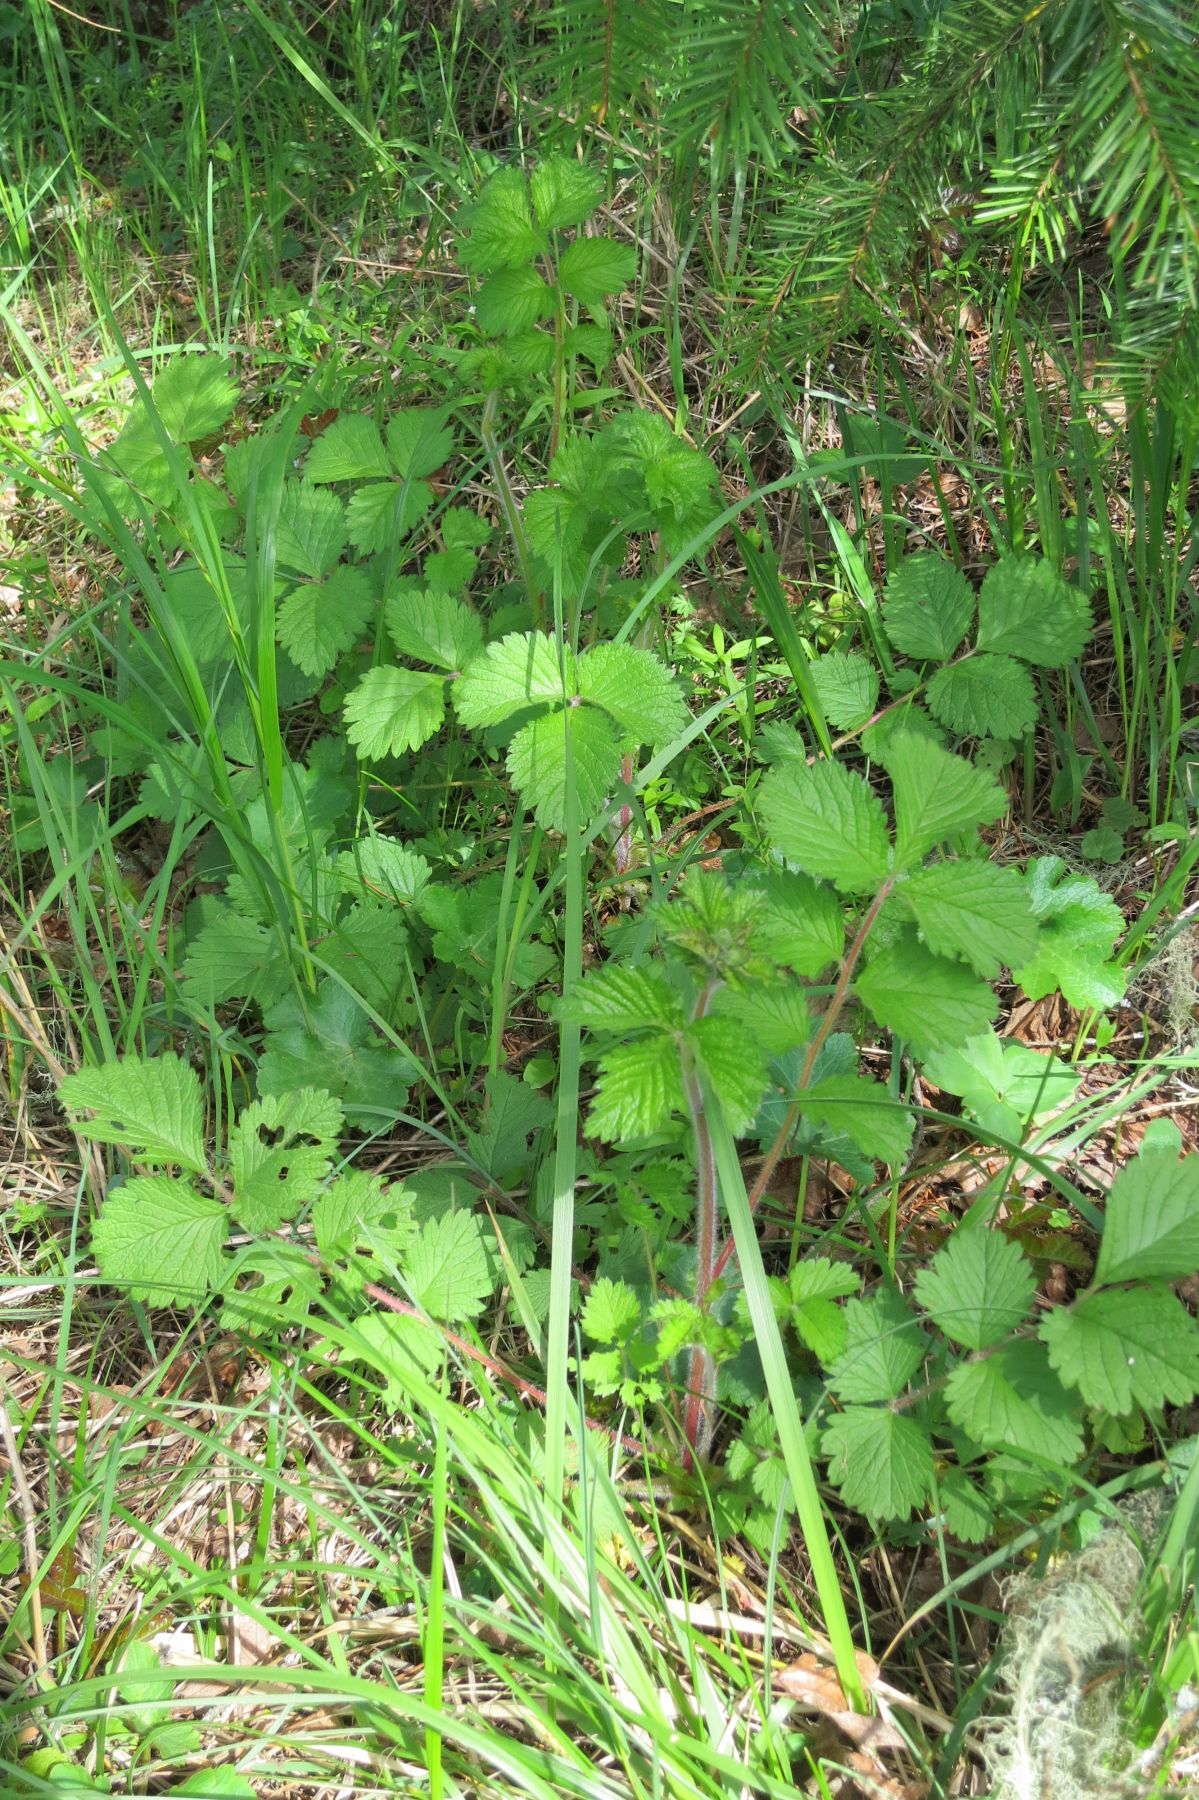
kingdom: Plantae
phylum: Tracheophyta
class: Magnoliopsida
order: Rosales
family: Rosaceae
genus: Drymocallis
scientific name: Drymocallis glandulosa
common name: Sticky cinquefoil
